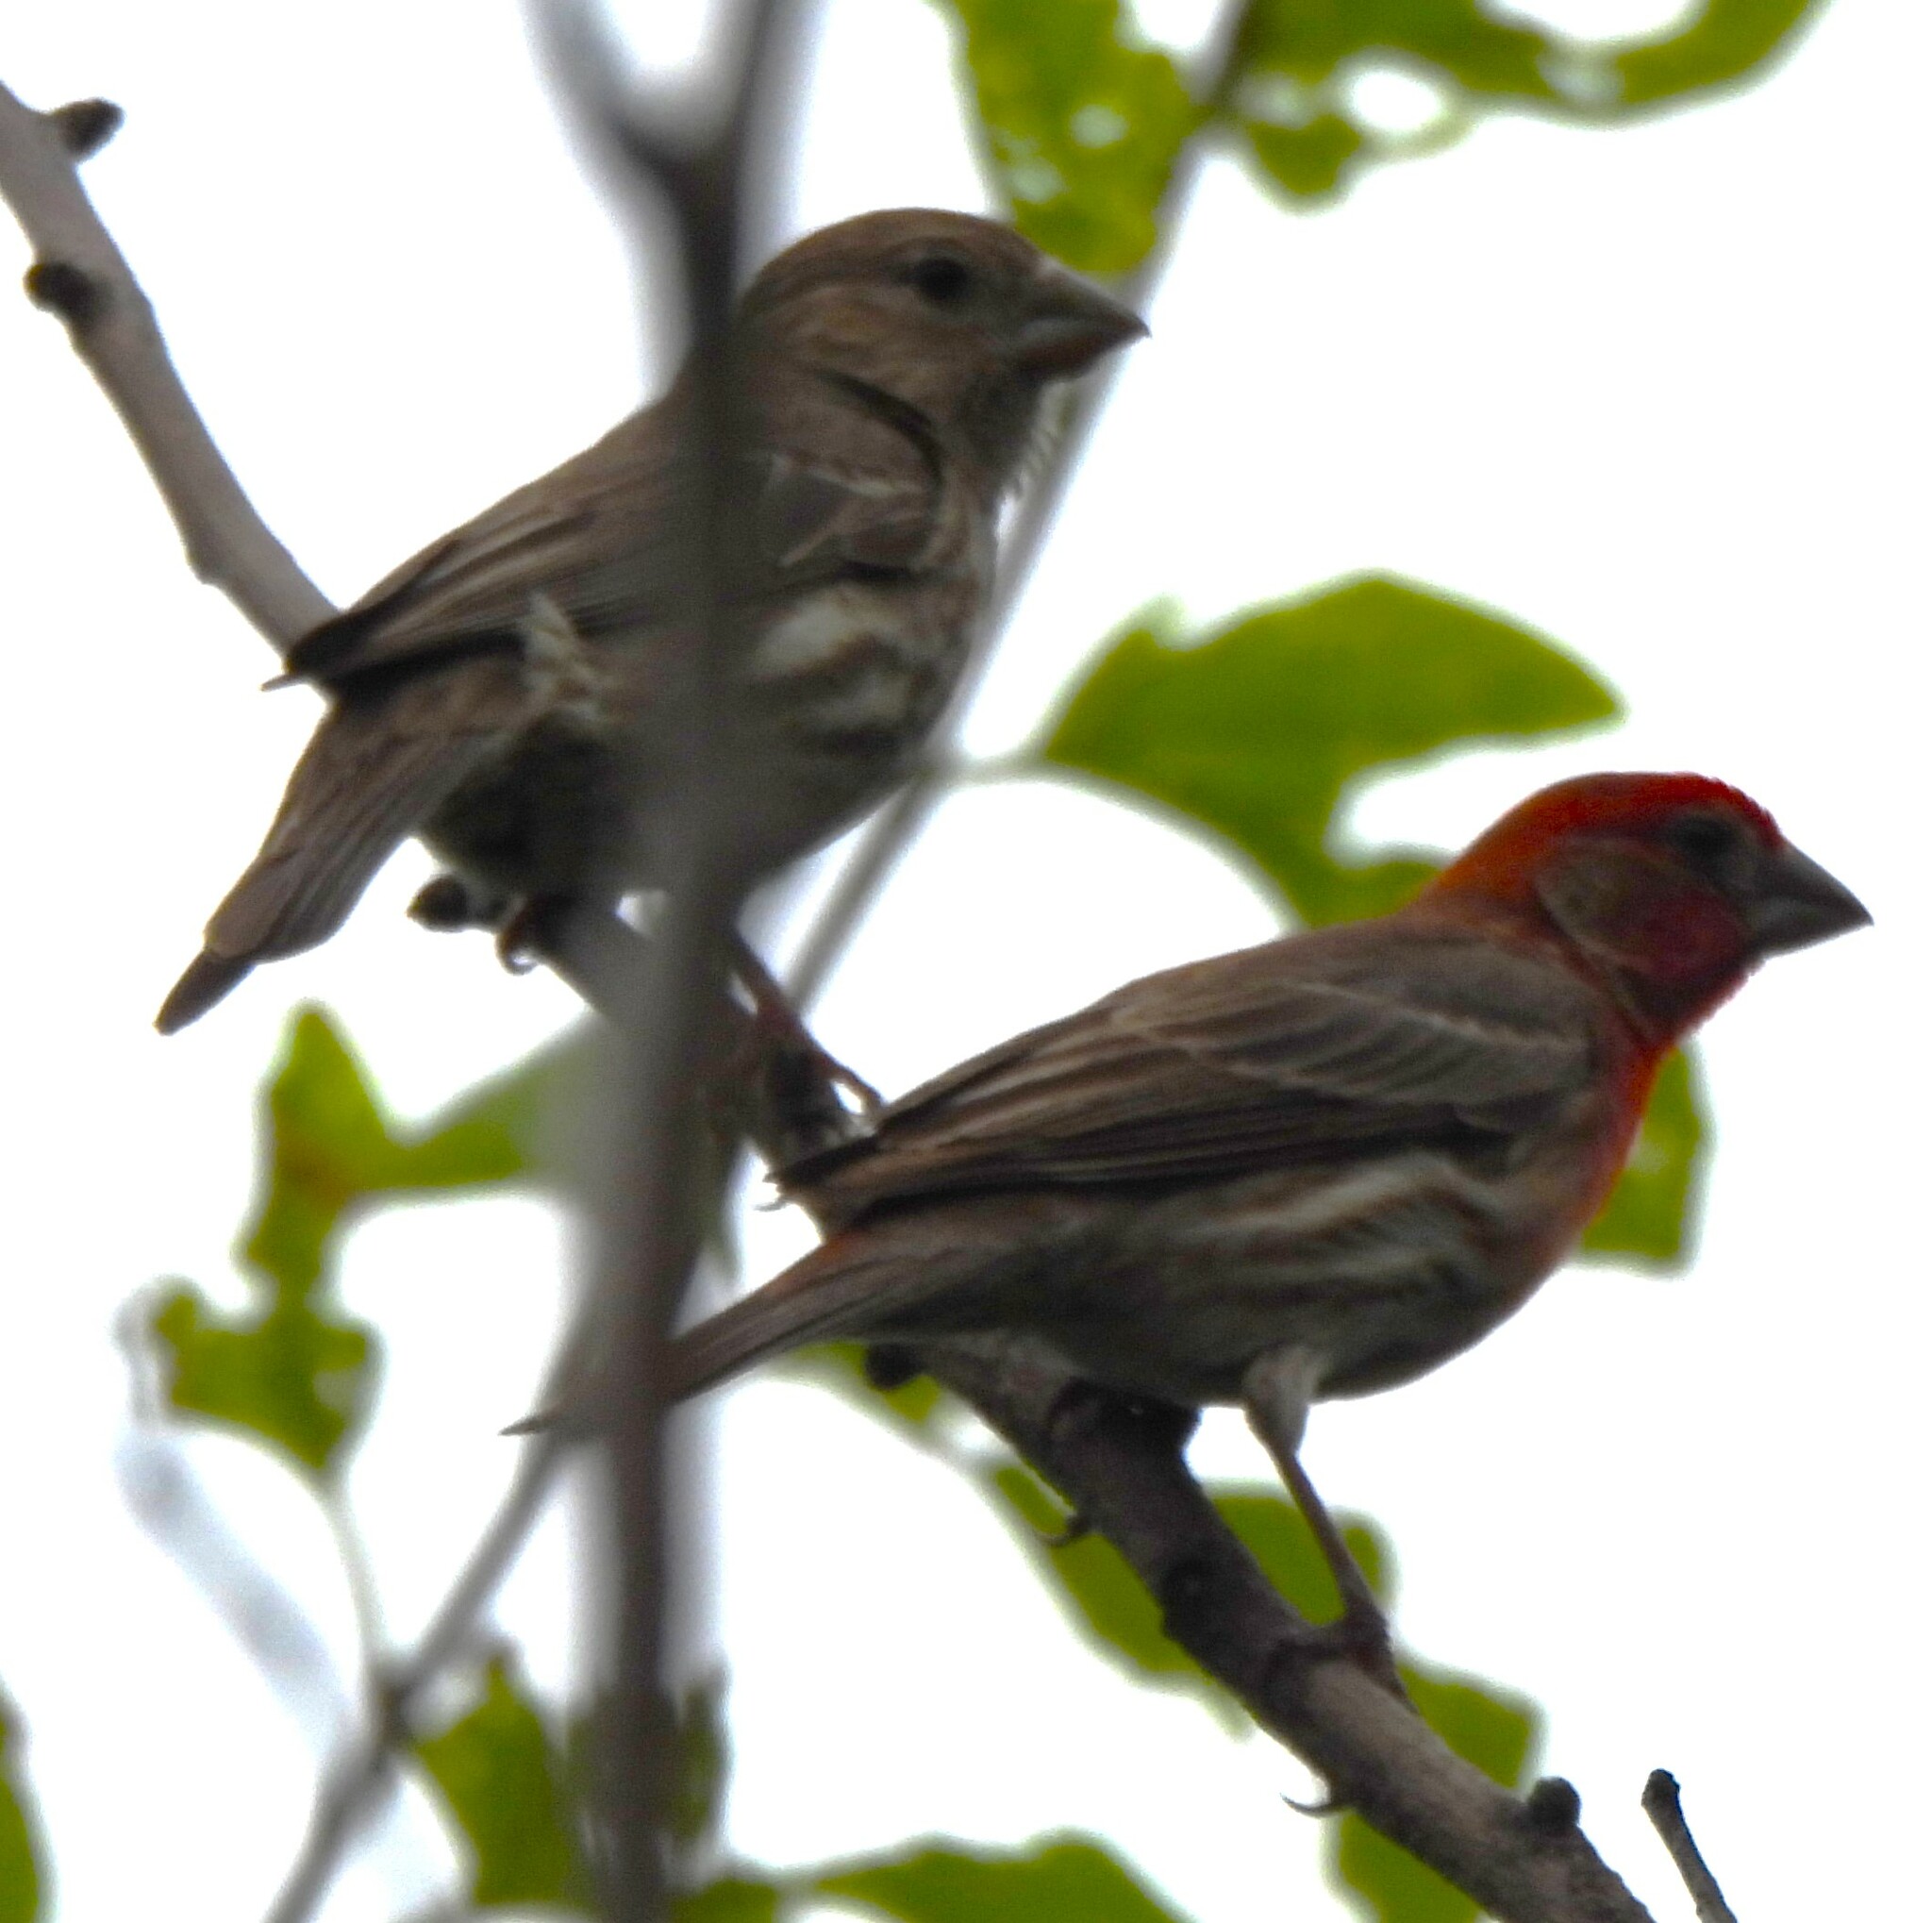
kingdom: Animalia
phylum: Chordata
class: Aves
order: Passeriformes
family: Fringillidae
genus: Haemorhous
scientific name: Haemorhous mexicanus
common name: House finch
